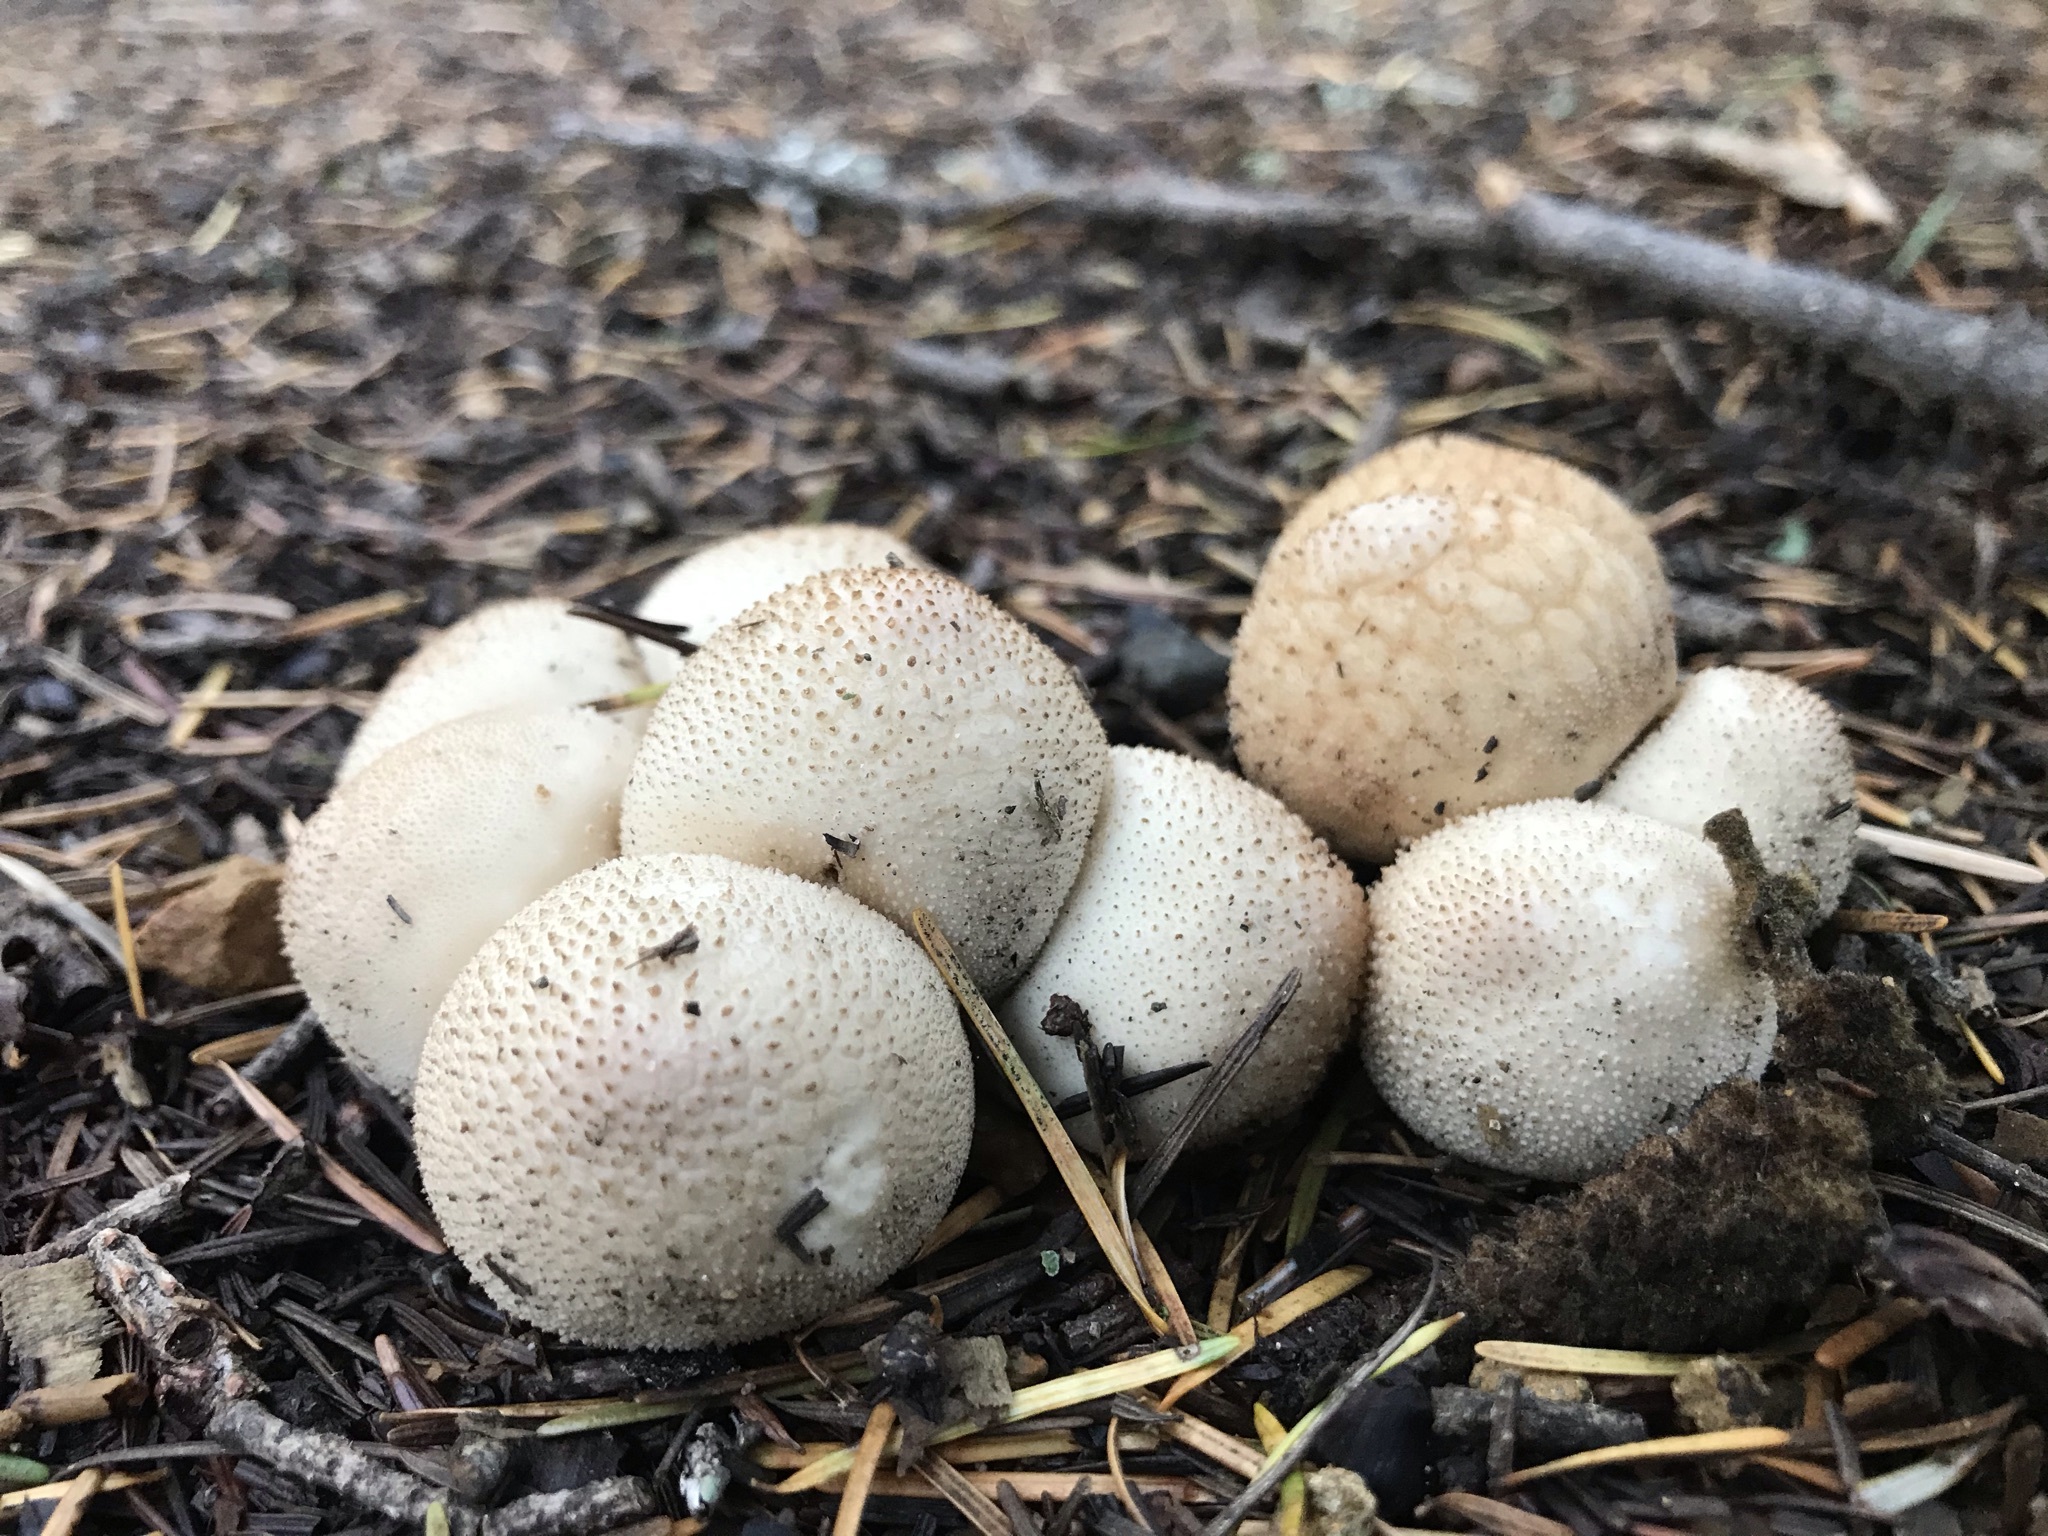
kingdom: Fungi
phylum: Basidiomycota
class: Agaricomycetes
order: Agaricales
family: Lycoperdaceae
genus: Lycoperdon
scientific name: Lycoperdon perlatum
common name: Common puffball
